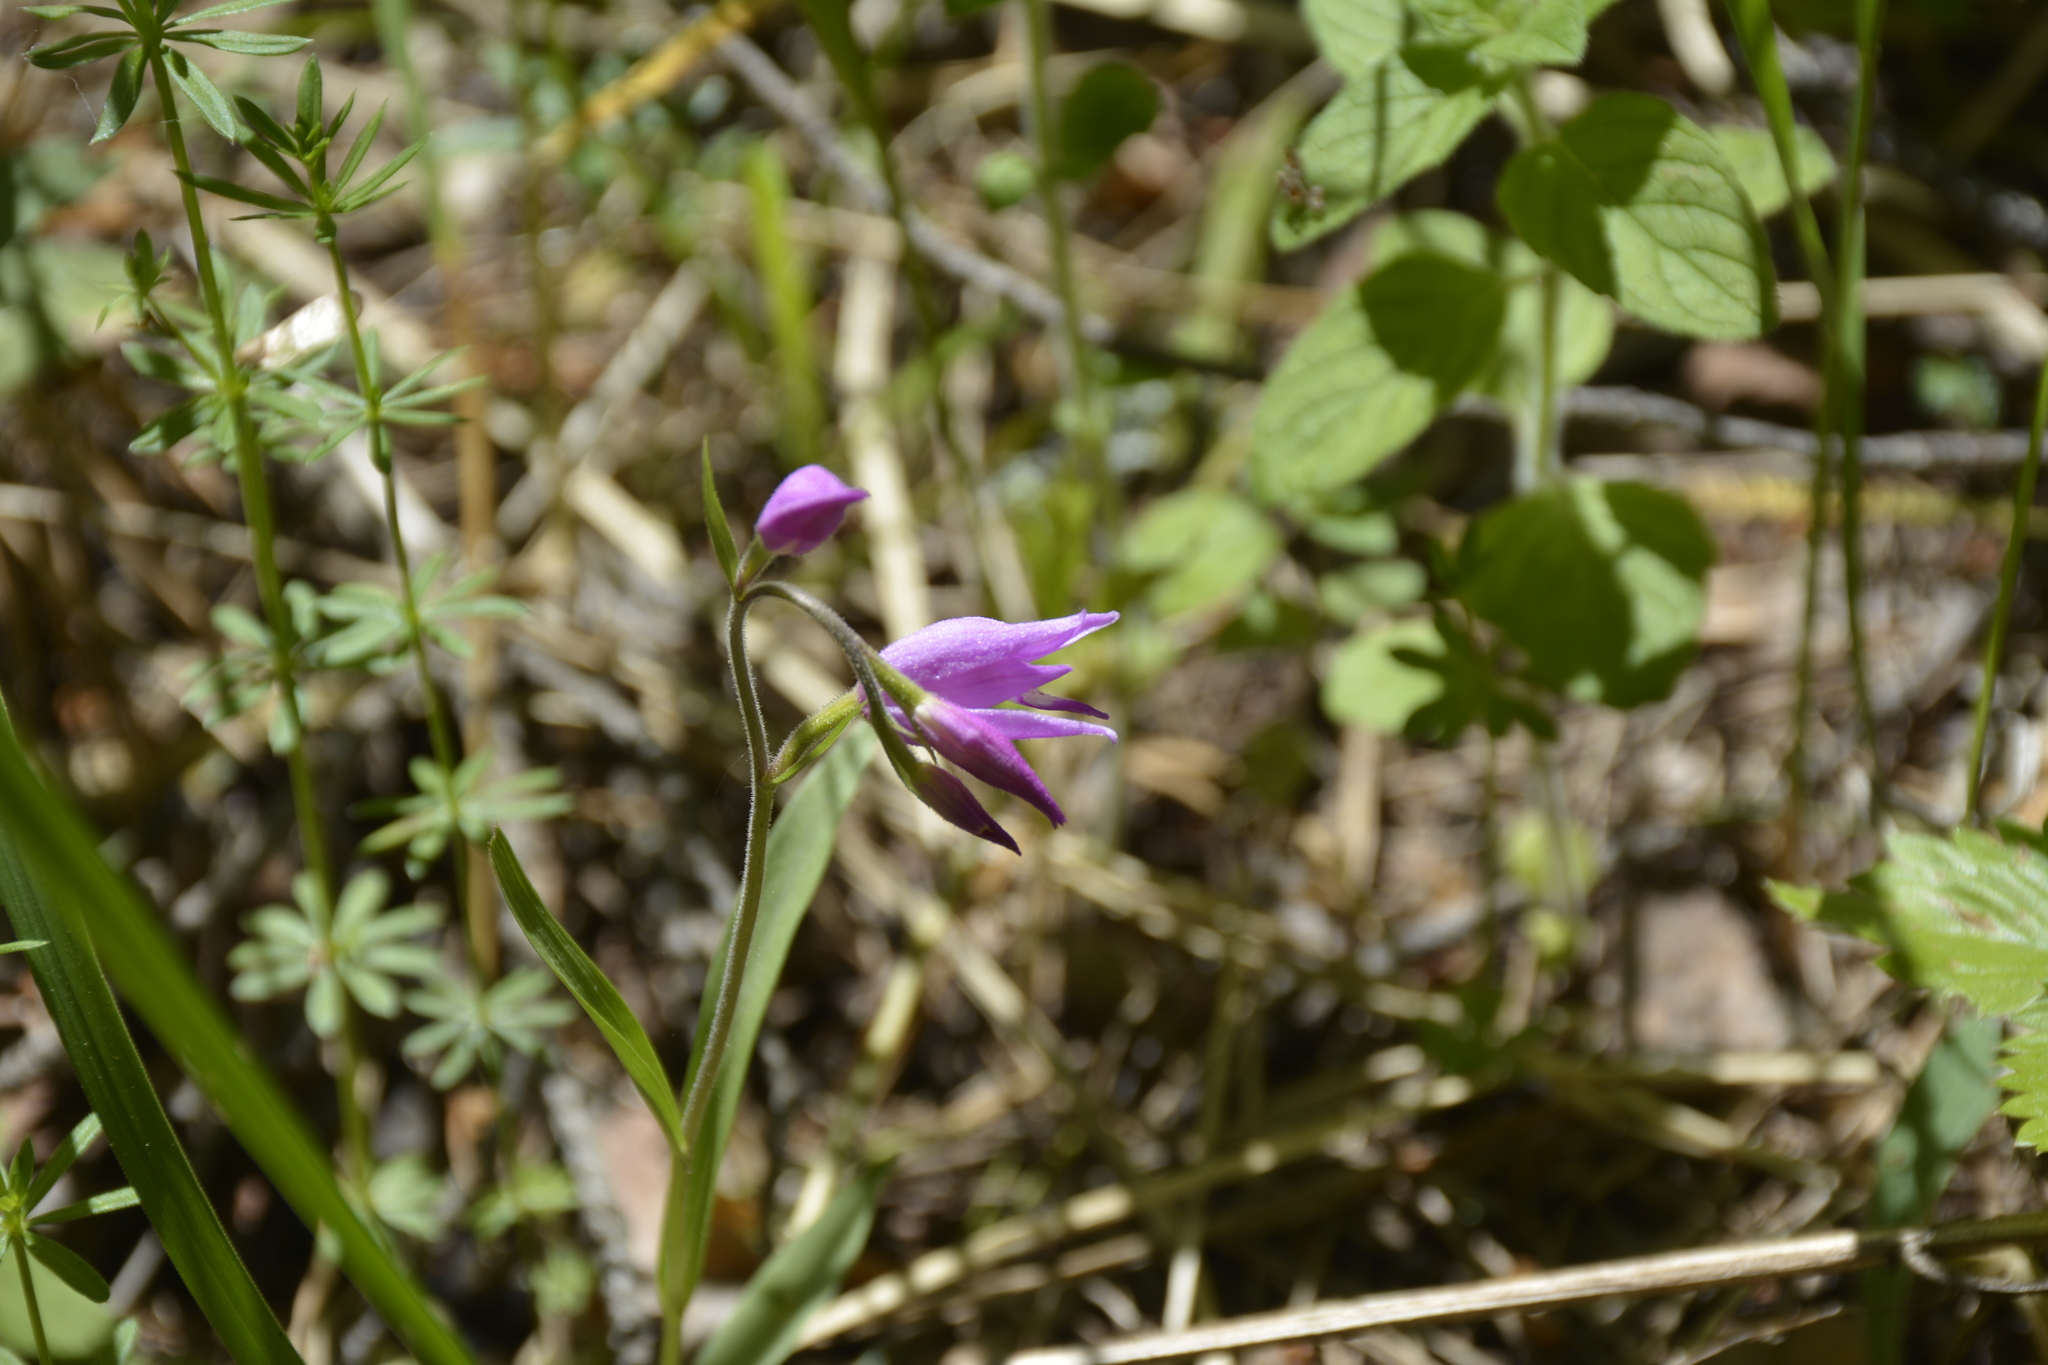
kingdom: Plantae
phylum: Tracheophyta
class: Liliopsida
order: Asparagales
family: Orchidaceae
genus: Cephalanthera
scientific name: Cephalanthera rubra
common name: Red helleborine
